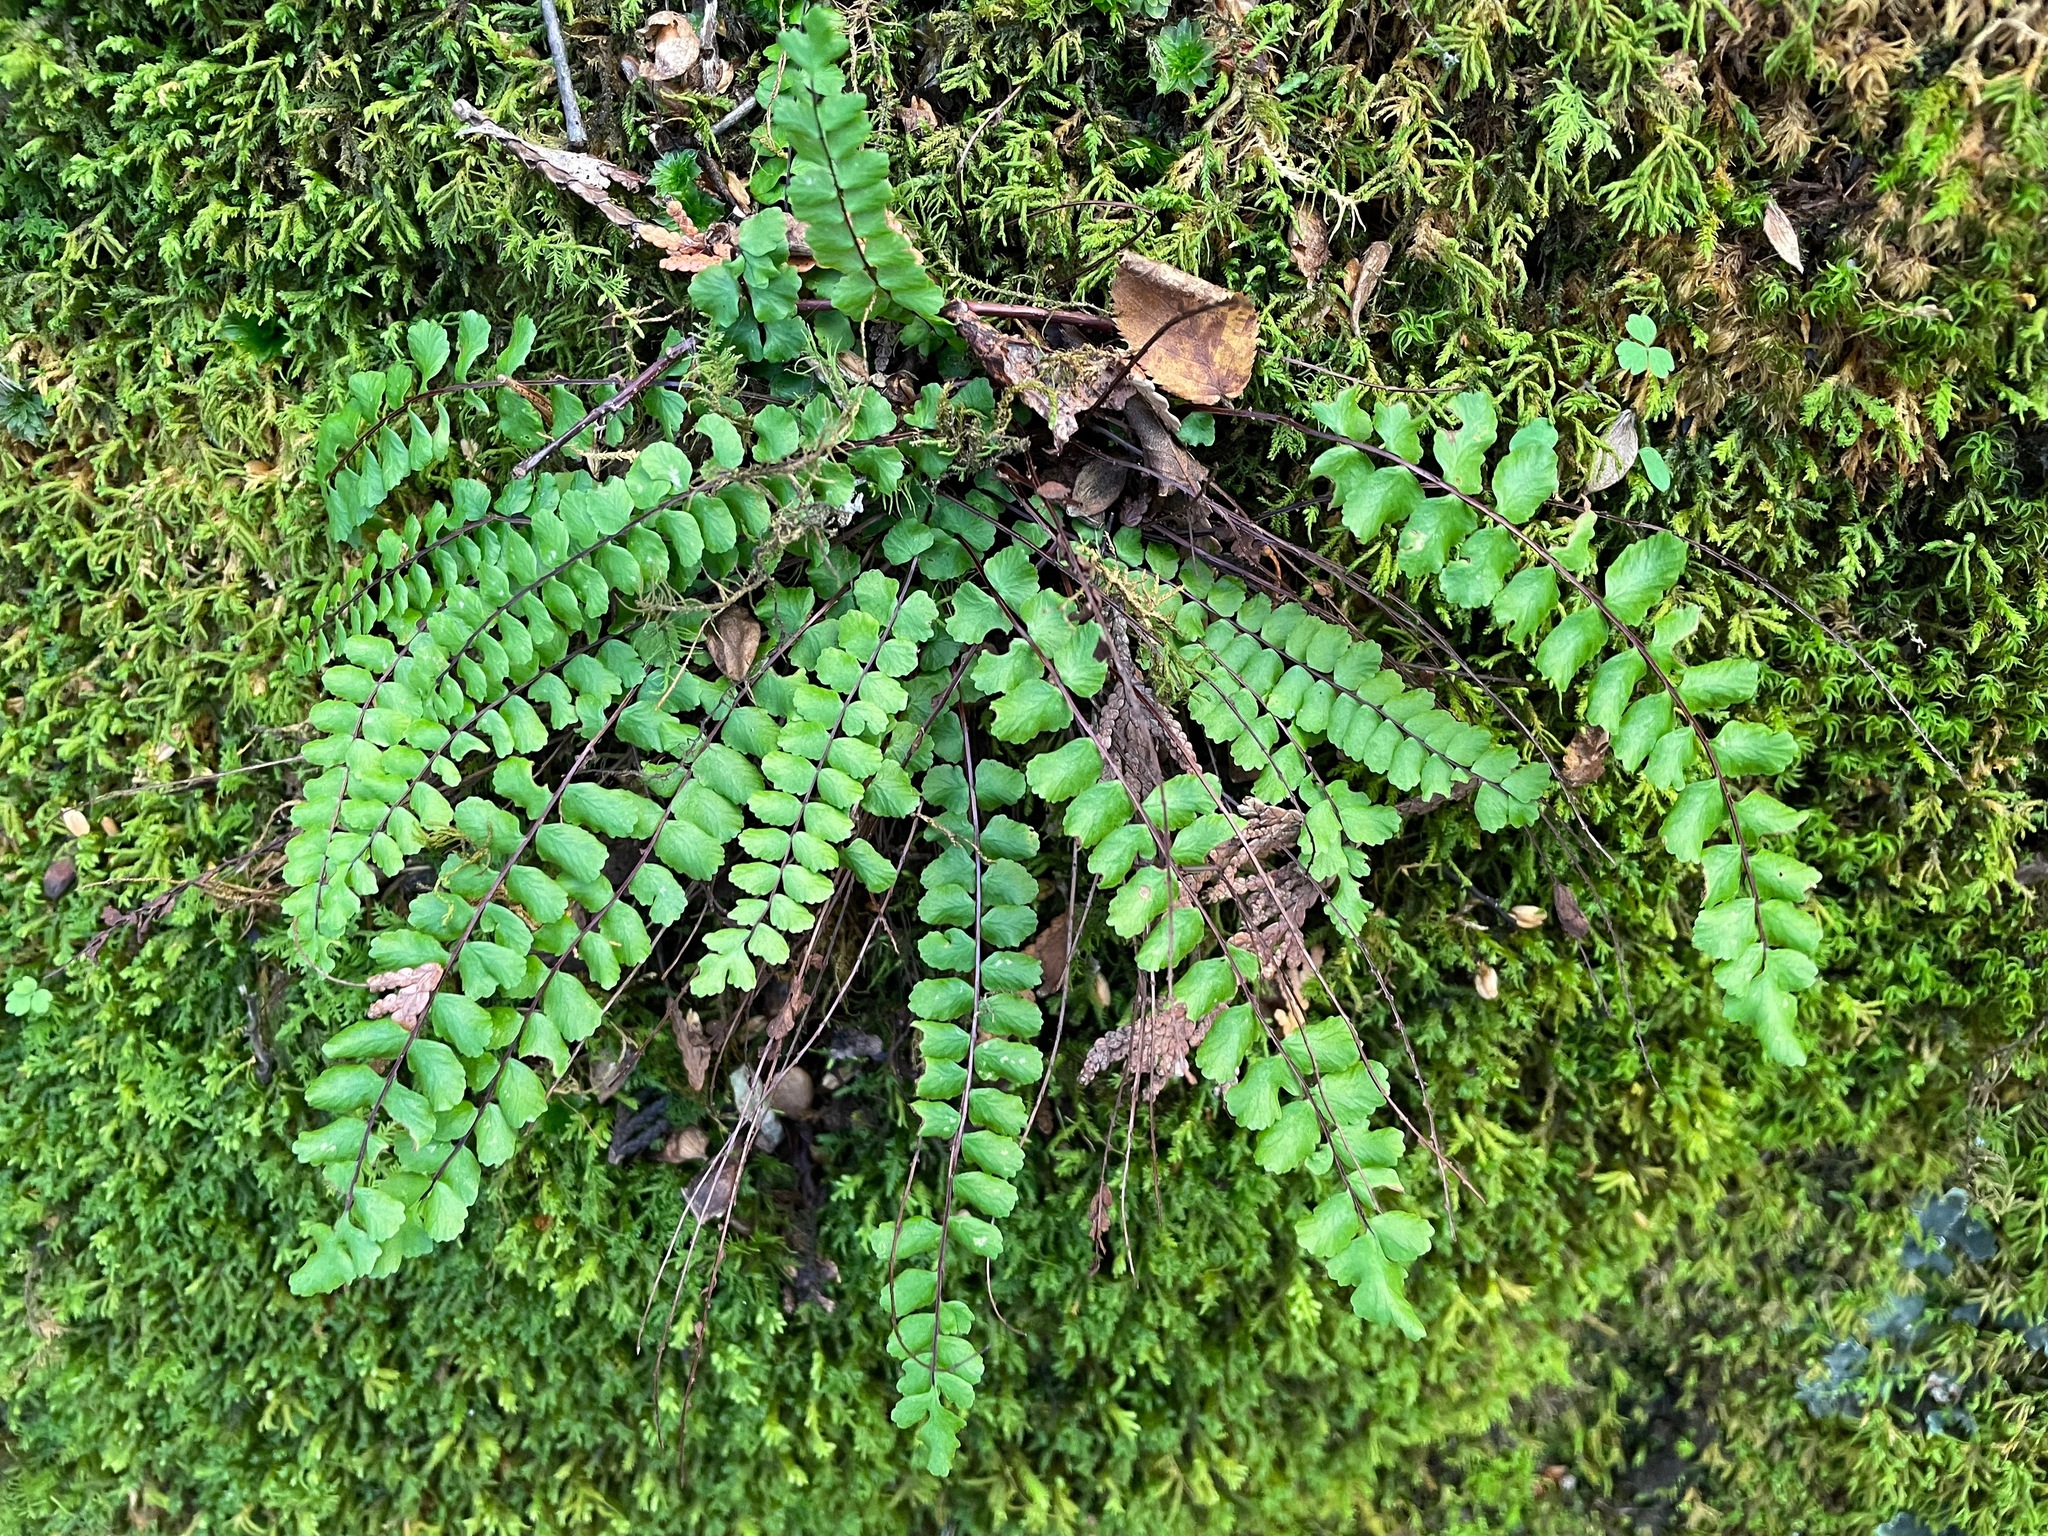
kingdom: Plantae
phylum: Tracheophyta
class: Polypodiopsida
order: Polypodiales
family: Aspleniaceae
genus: Asplenium
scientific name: Asplenium trichomanes
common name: Maidenhair spleenwort
